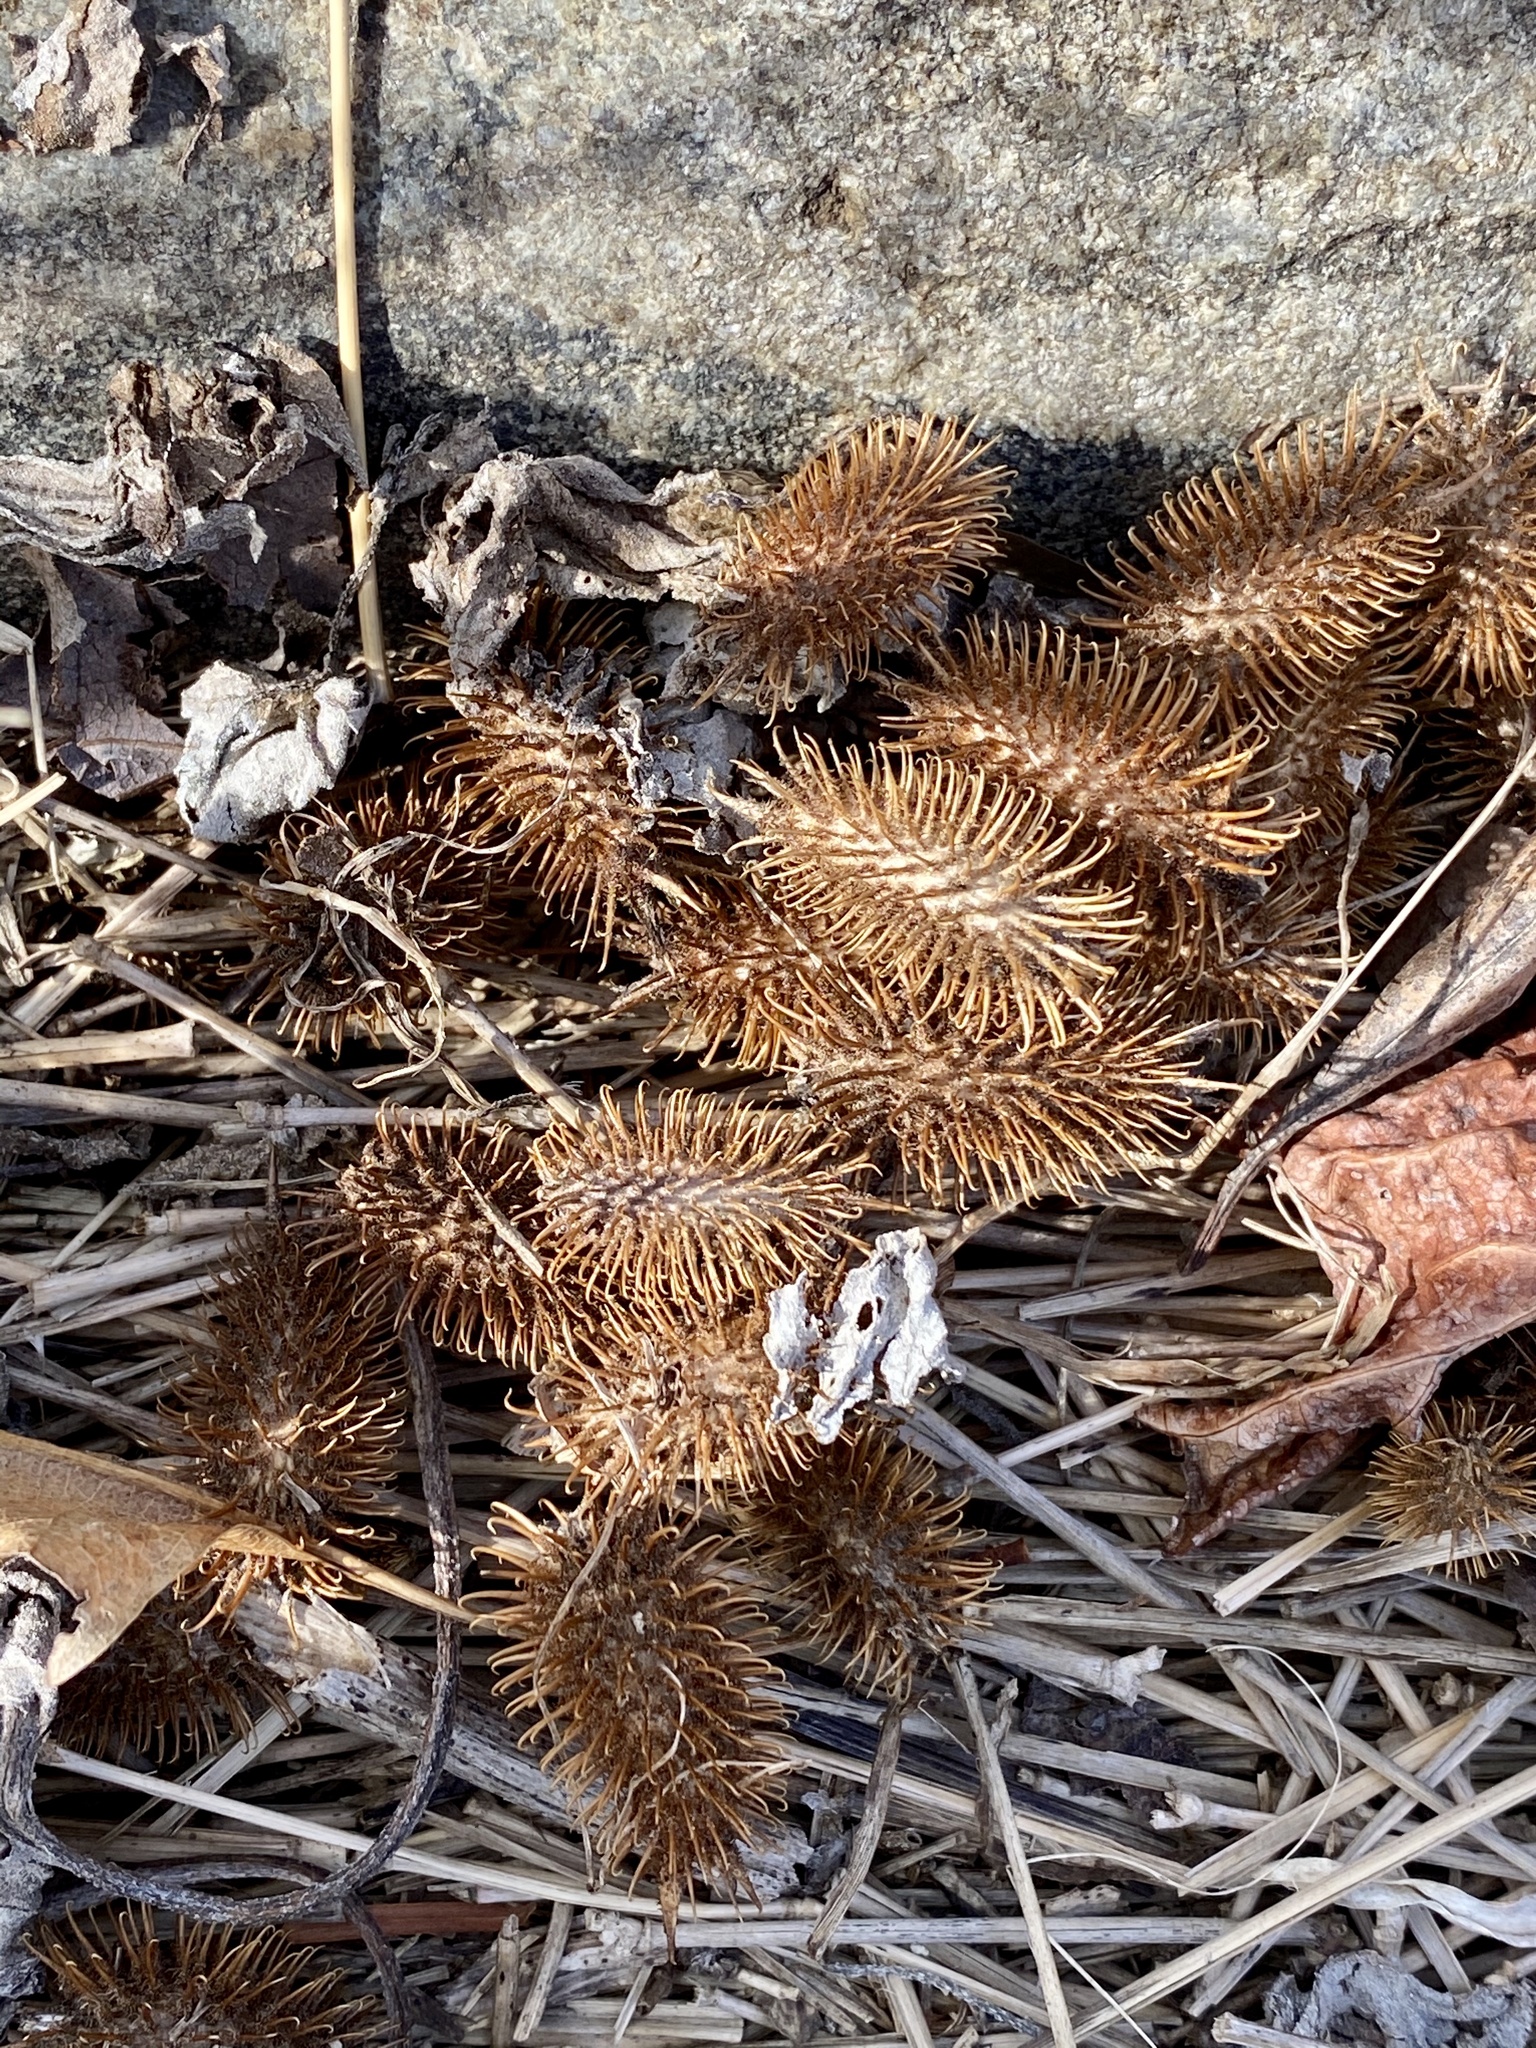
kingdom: Plantae
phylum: Tracheophyta
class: Magnoliopsida
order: Asterales
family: Asteraceae
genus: Xanthium
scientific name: Xanthium strumarium
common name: Rough cocklebur
